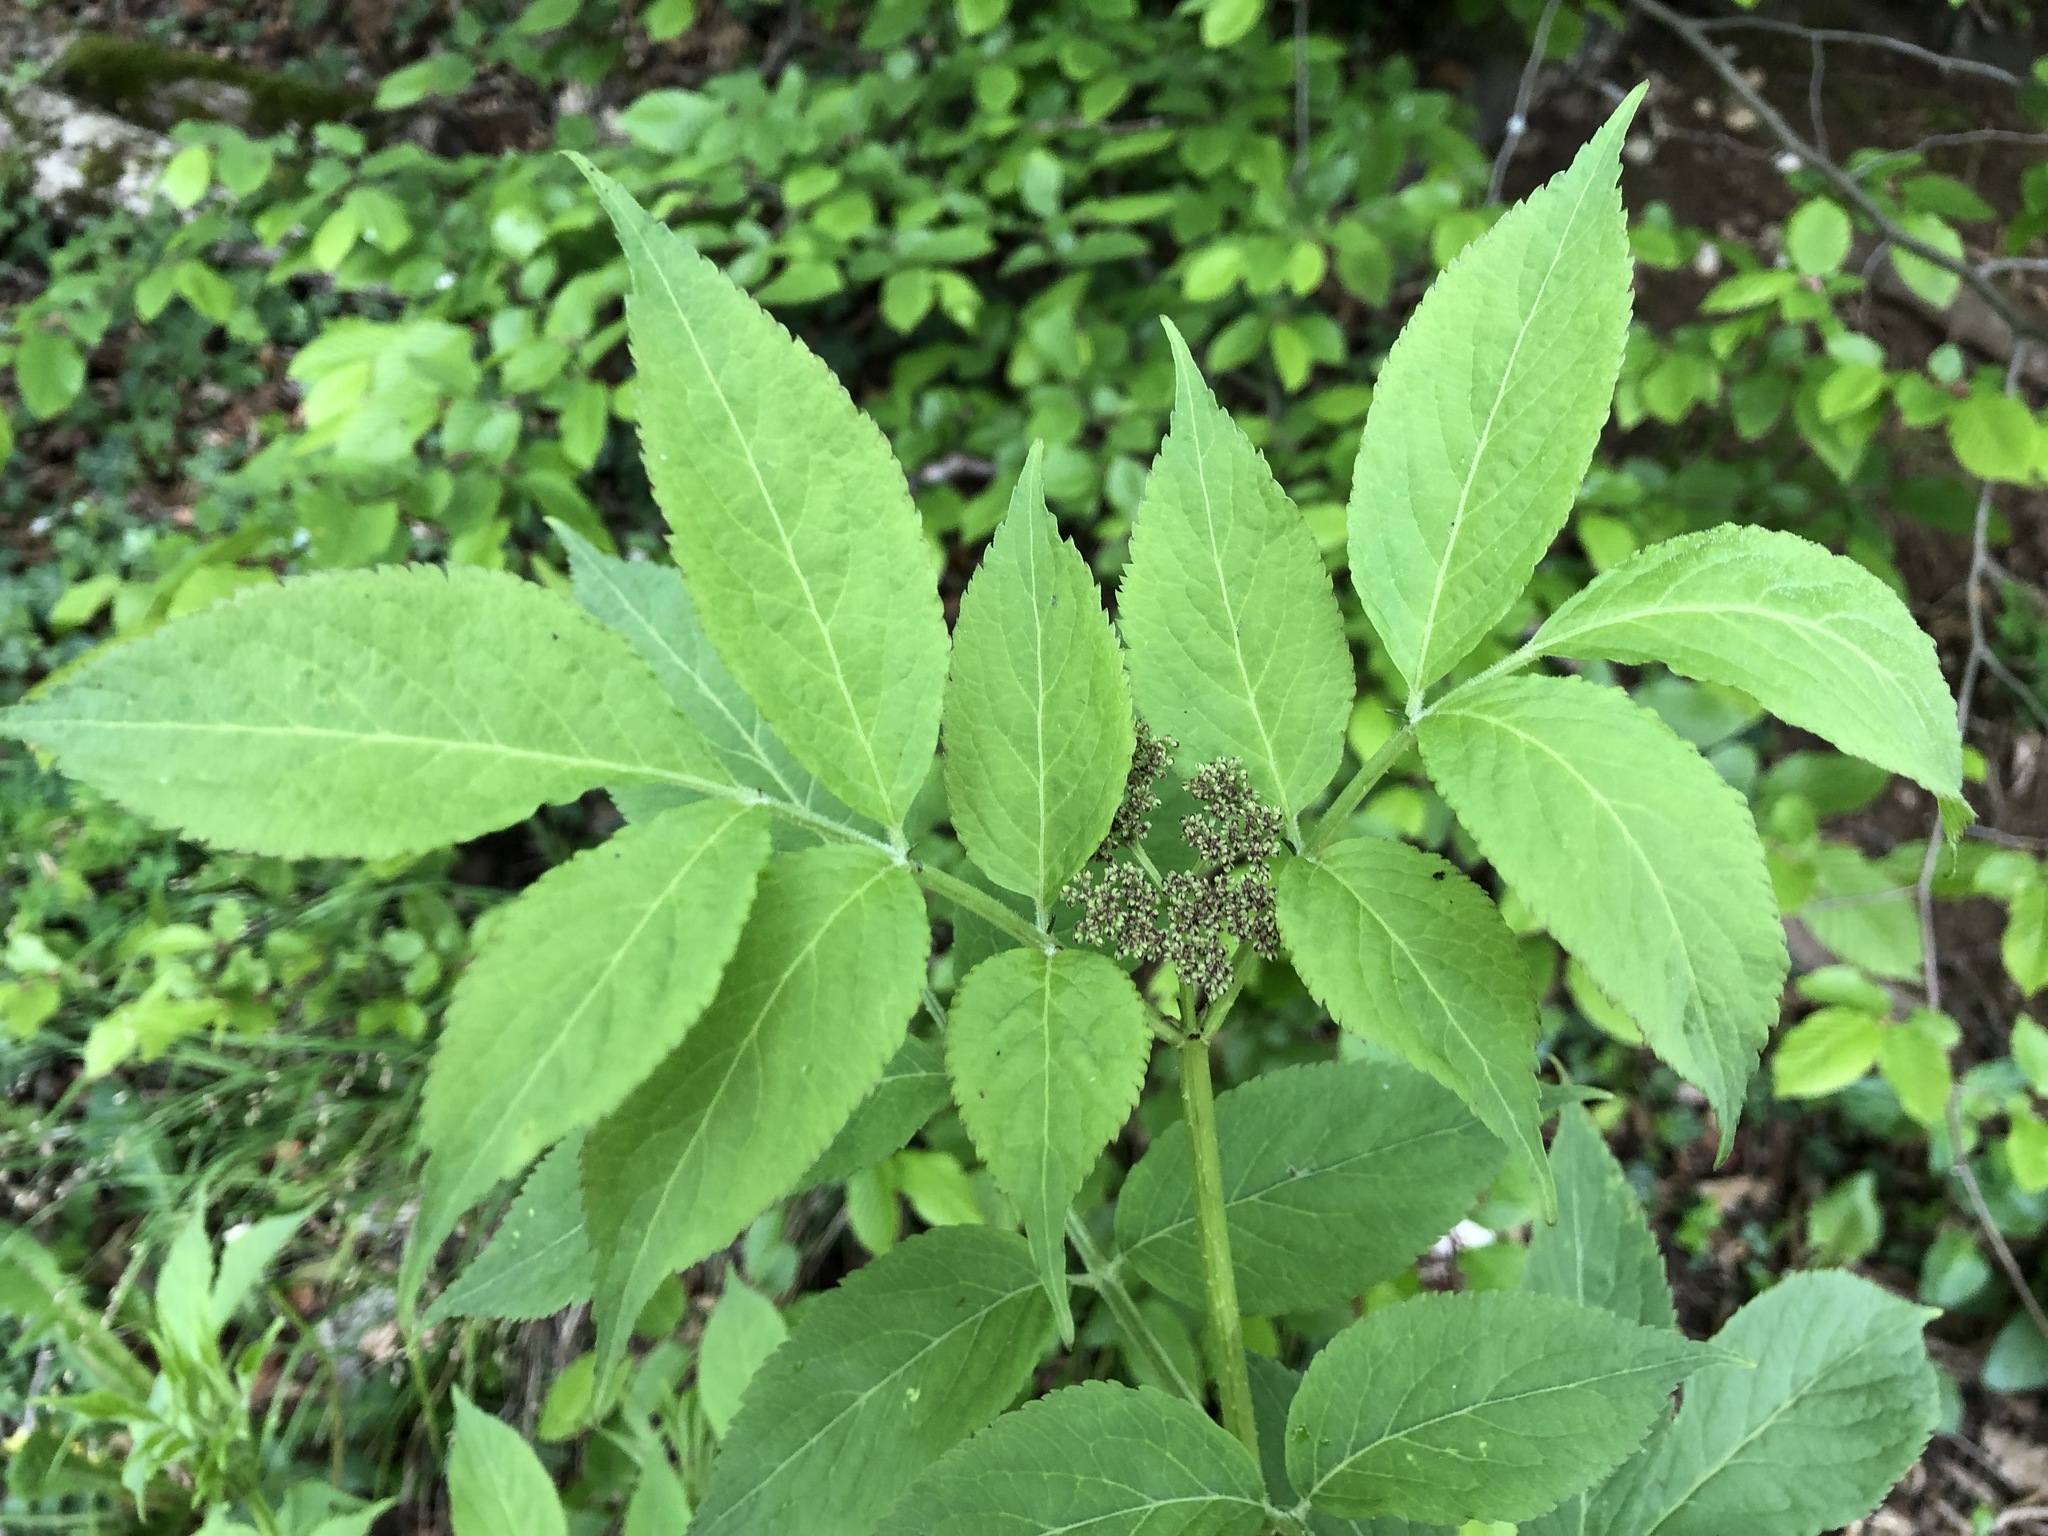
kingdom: Plantae
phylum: Tracheophyta
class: Magnoliopsida
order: Dipsacales
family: Viburnaceae
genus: Sambucus
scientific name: Sambucus nigra
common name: Elder
